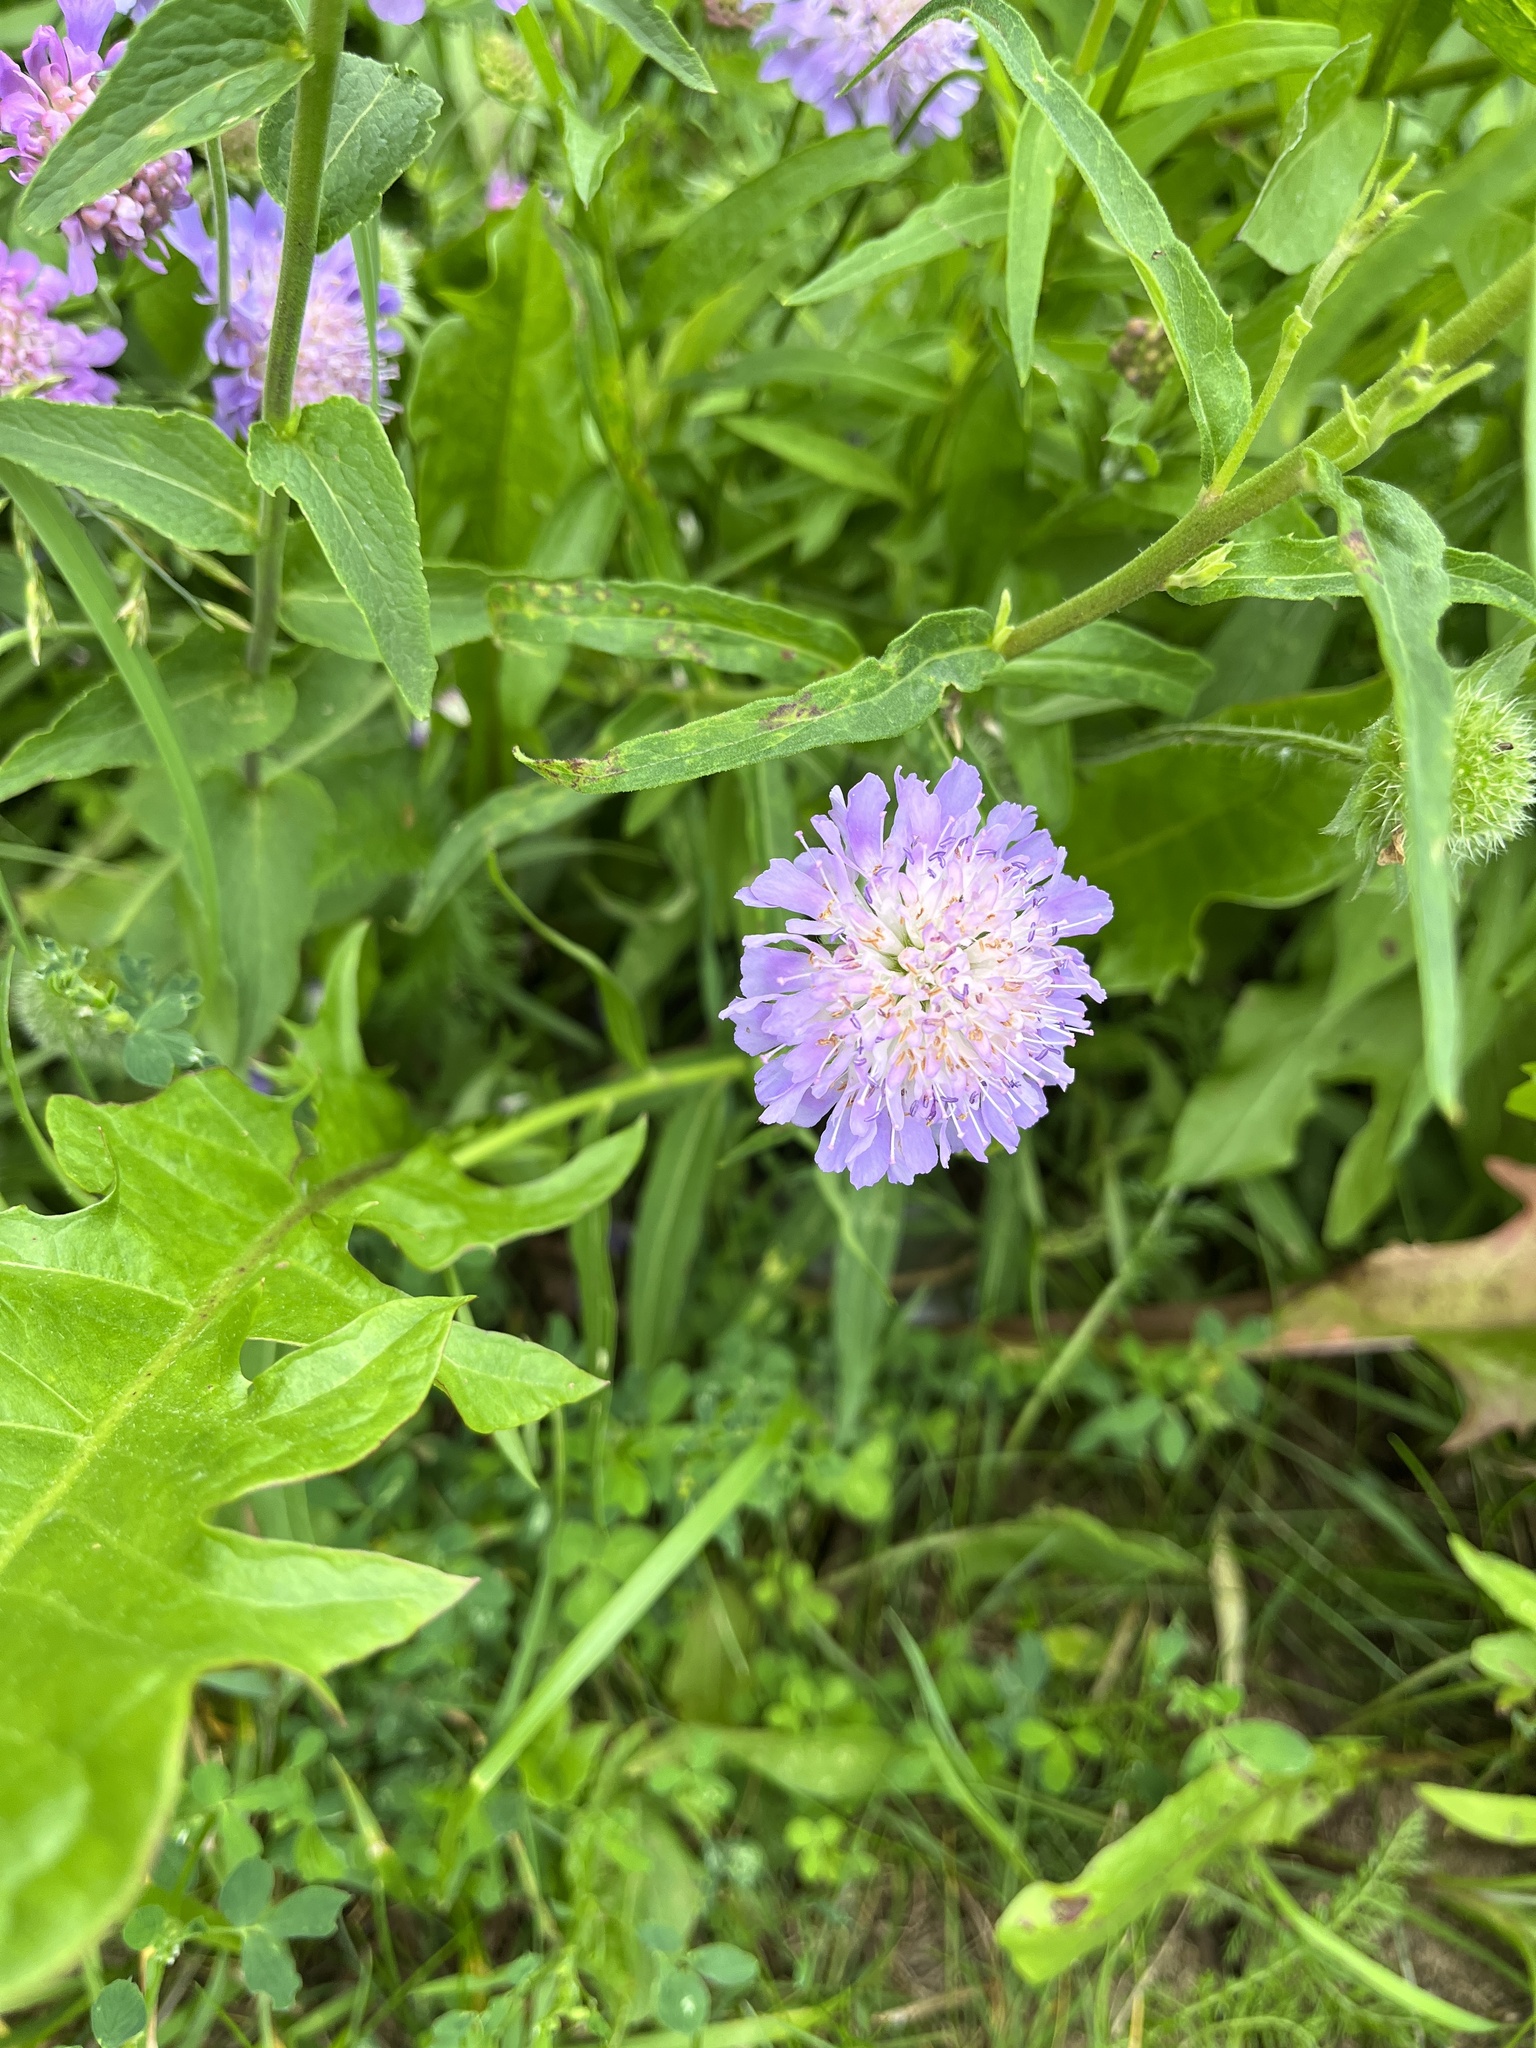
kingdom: Plantae
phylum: Tracheophyta
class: Magnoliopsida
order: Dipsacales
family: Caprifoliaceae
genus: Knautia
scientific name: Knautia arvensis
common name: Field scabiosa
